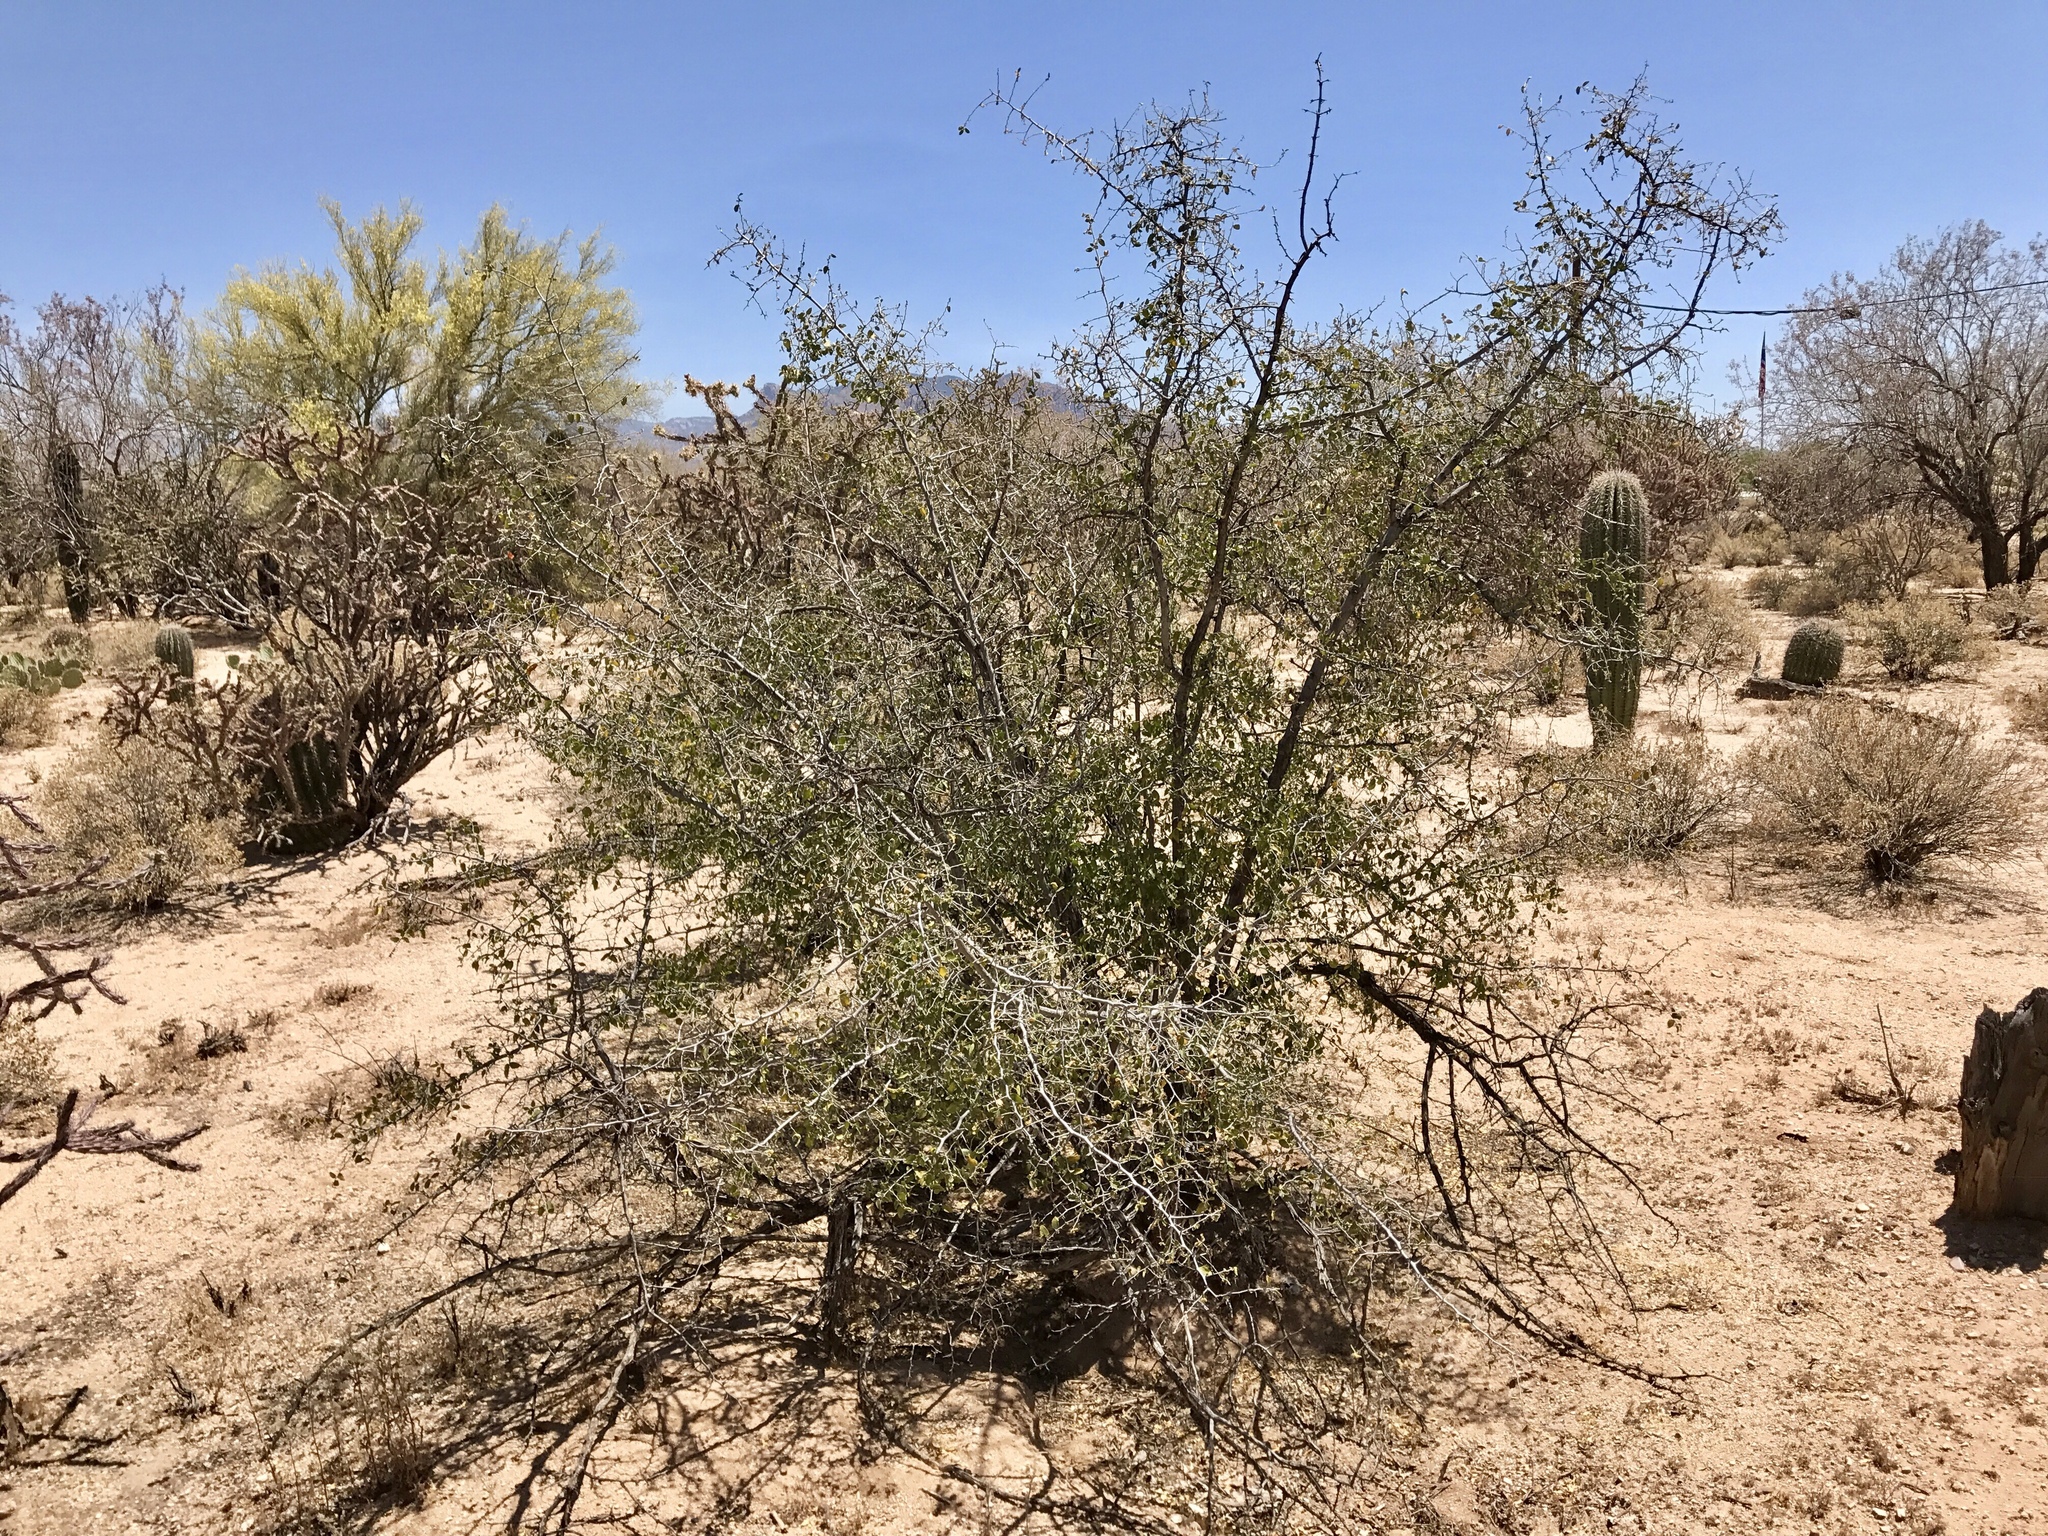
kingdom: Plantae
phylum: Tracheophyta
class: Magnoliopsida
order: Rosales
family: Cannabaceae
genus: Celtis
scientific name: Celtis pallida
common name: Desert hackberry
